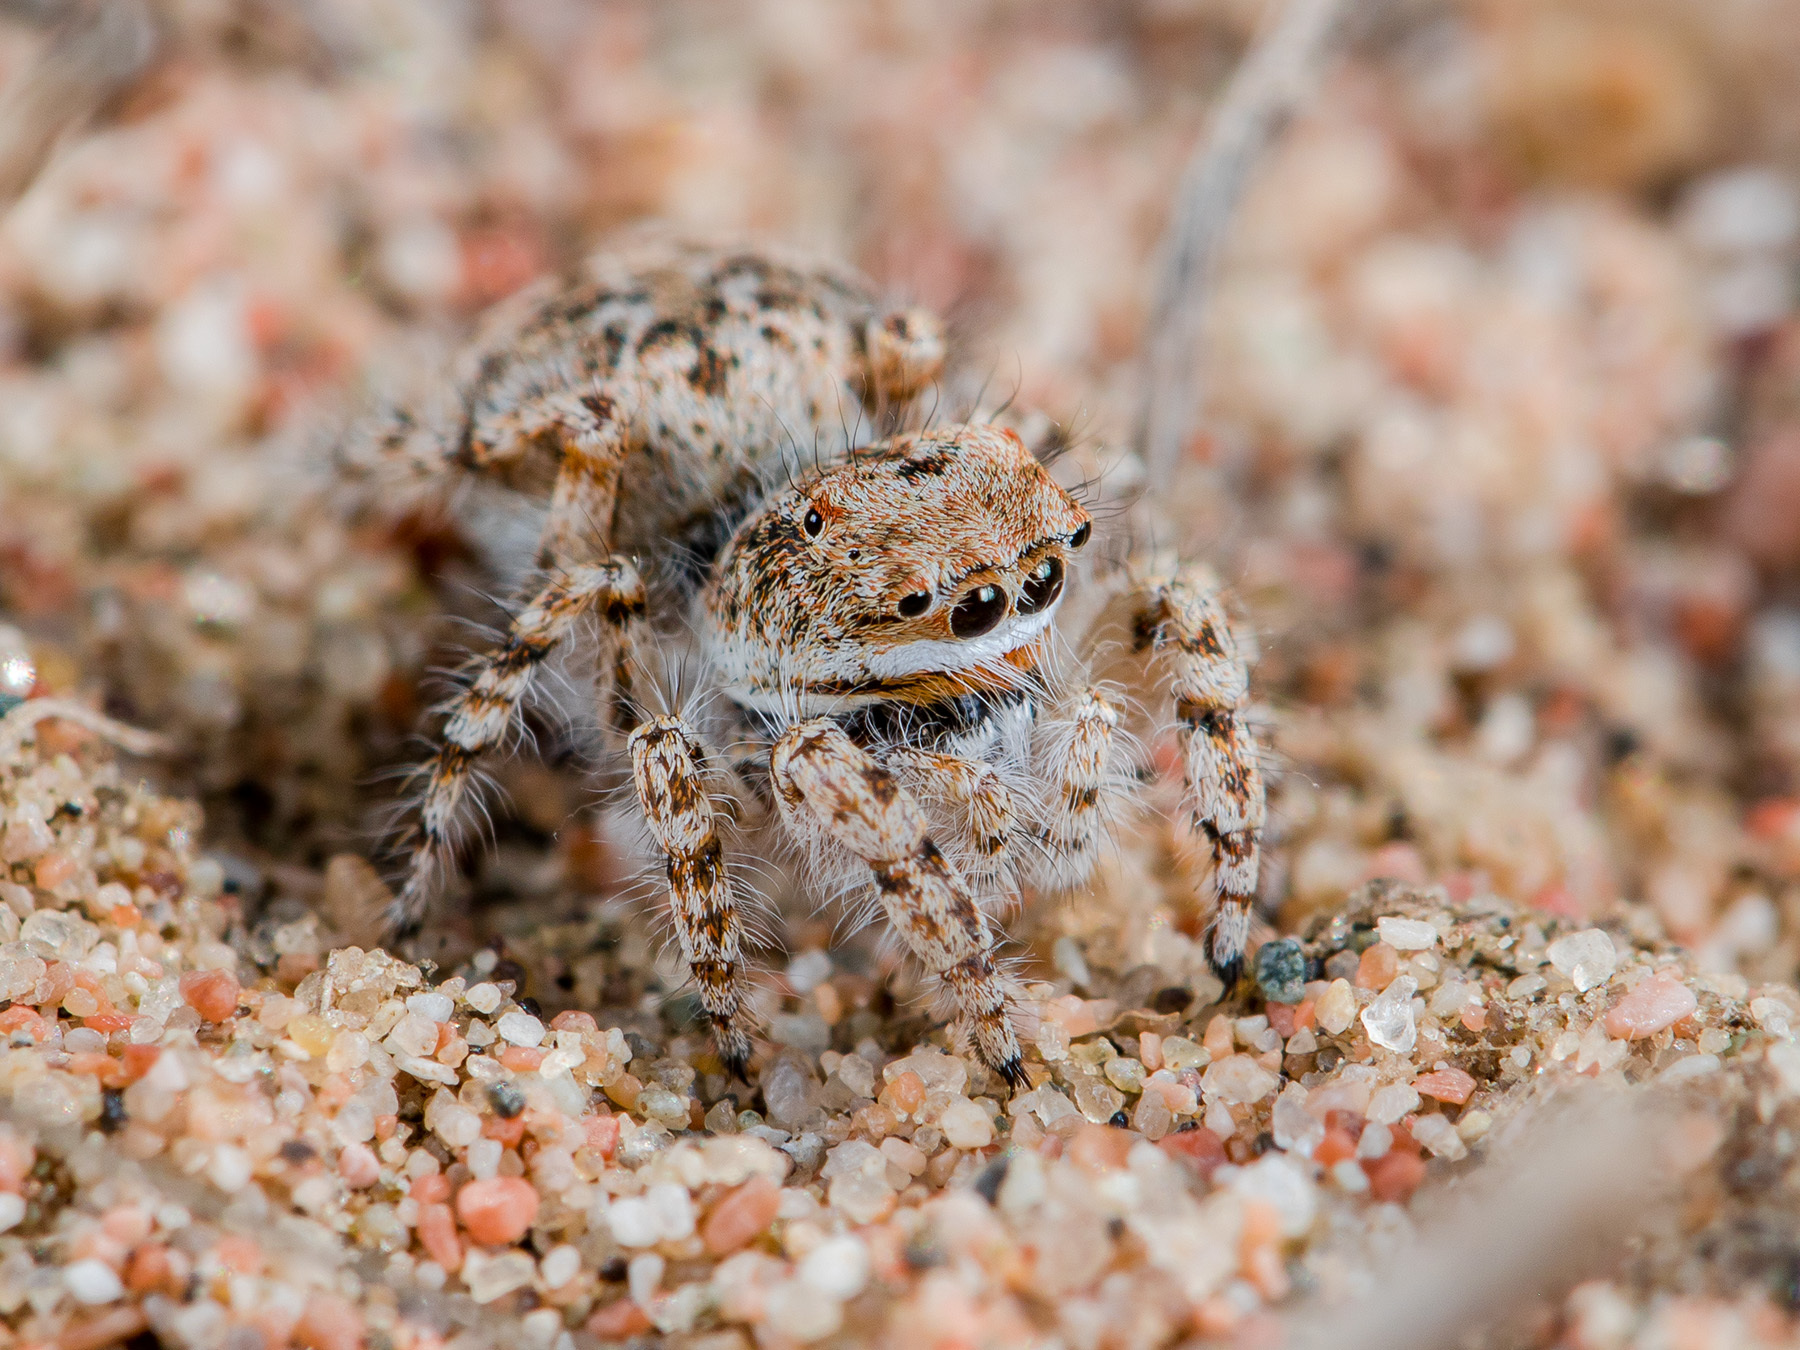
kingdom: Animalia
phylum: Arthropoda
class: Arachnida
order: Araneae
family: Salticidae
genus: Yllenus
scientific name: Yllenus uiguricus
